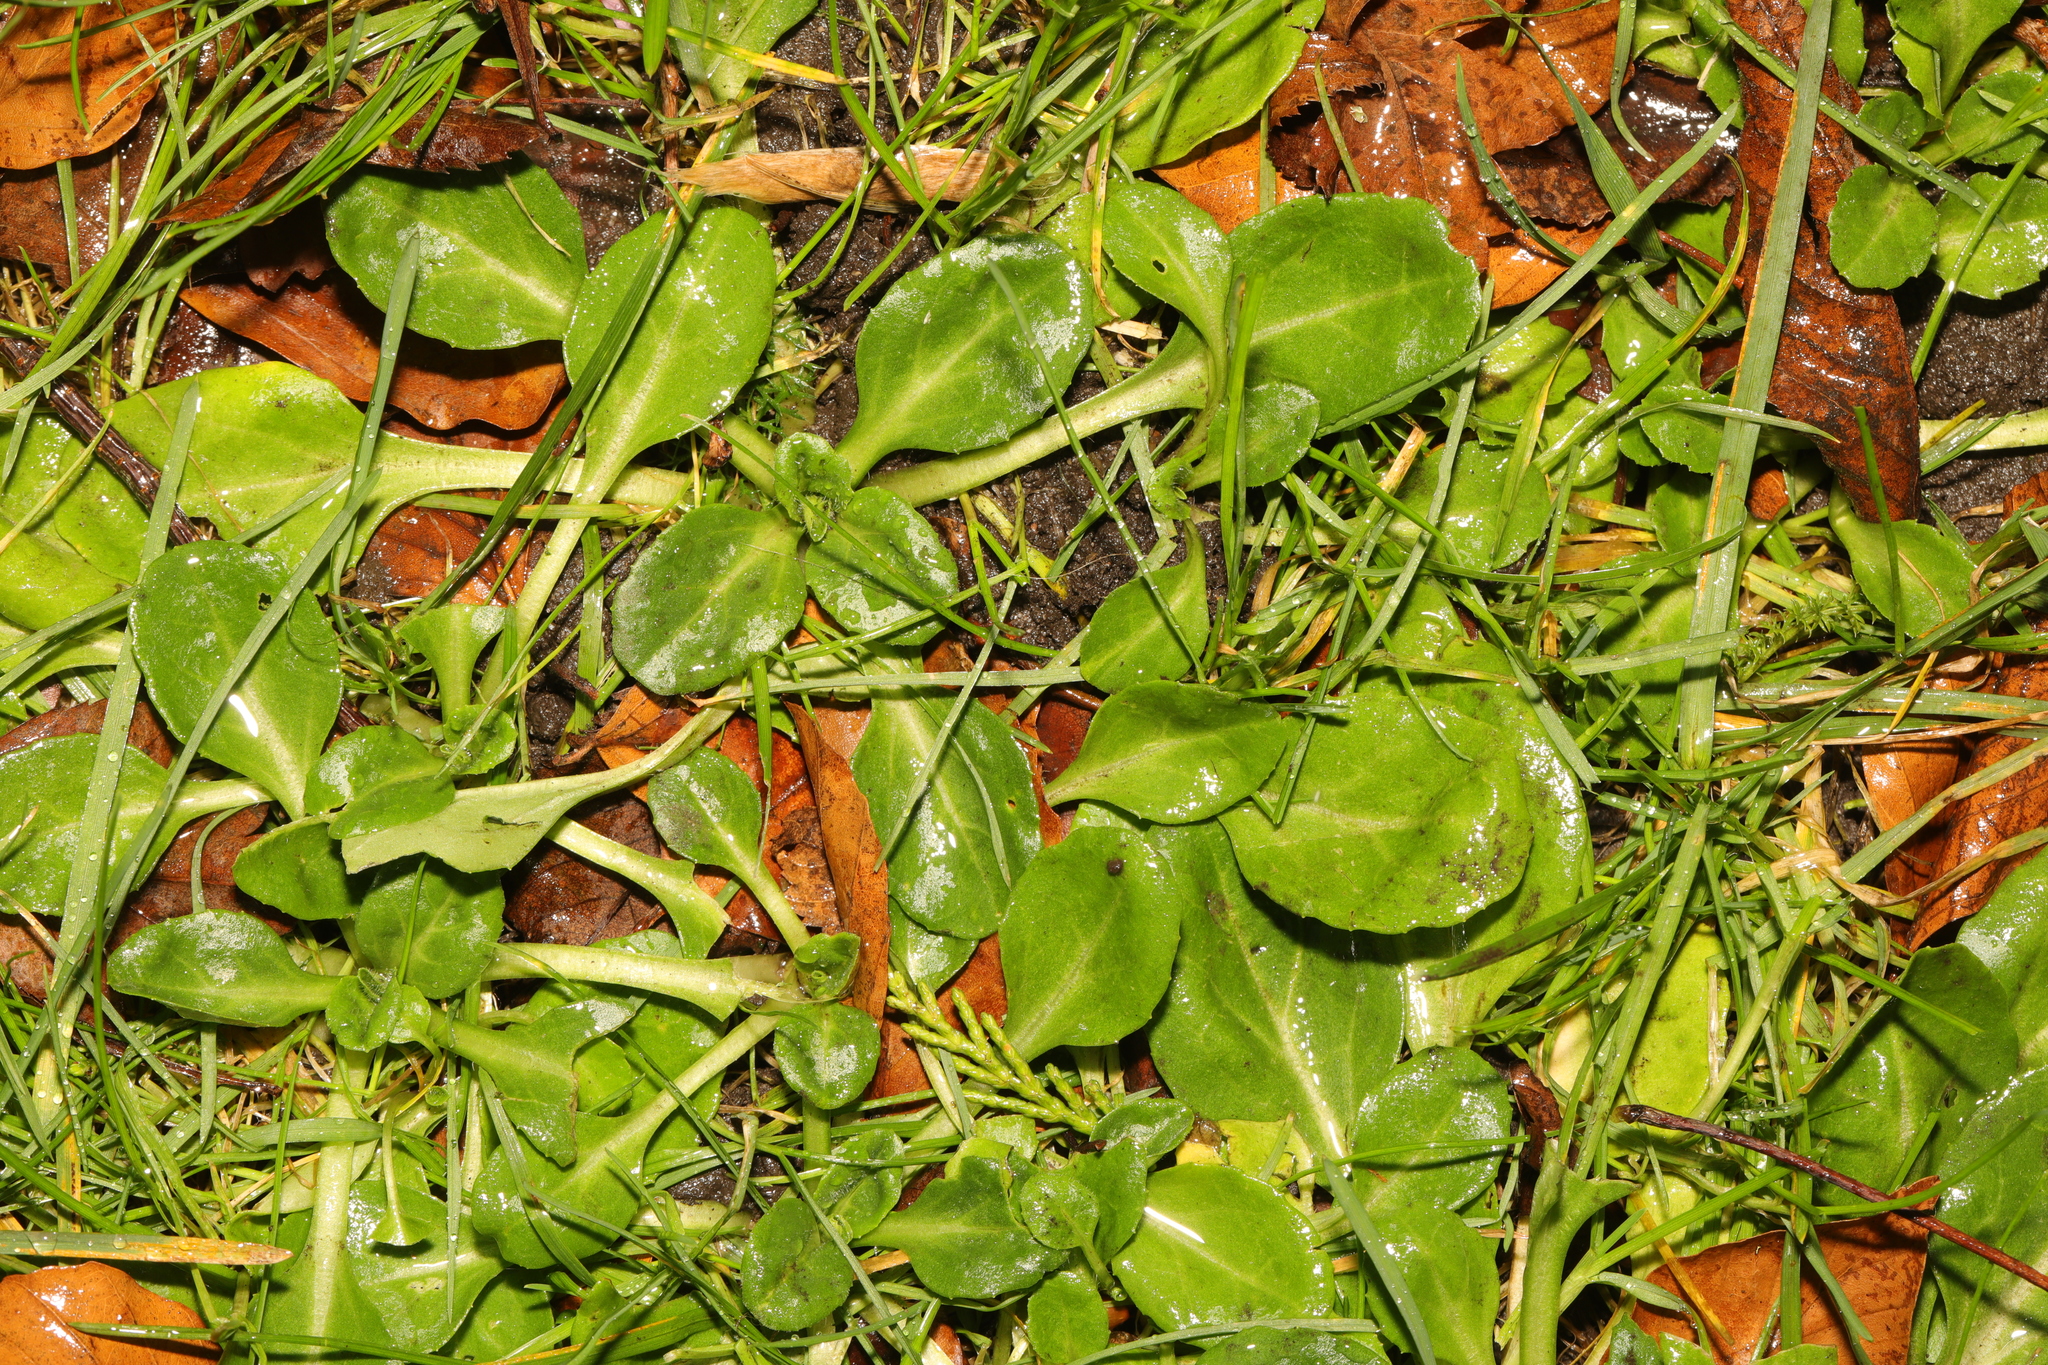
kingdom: Plantae
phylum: Tracheophyta
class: Magnoliopsida
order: Asterales
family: Asteraceae
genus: Bellis
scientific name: Bellis perennis
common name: Lawndaisy
